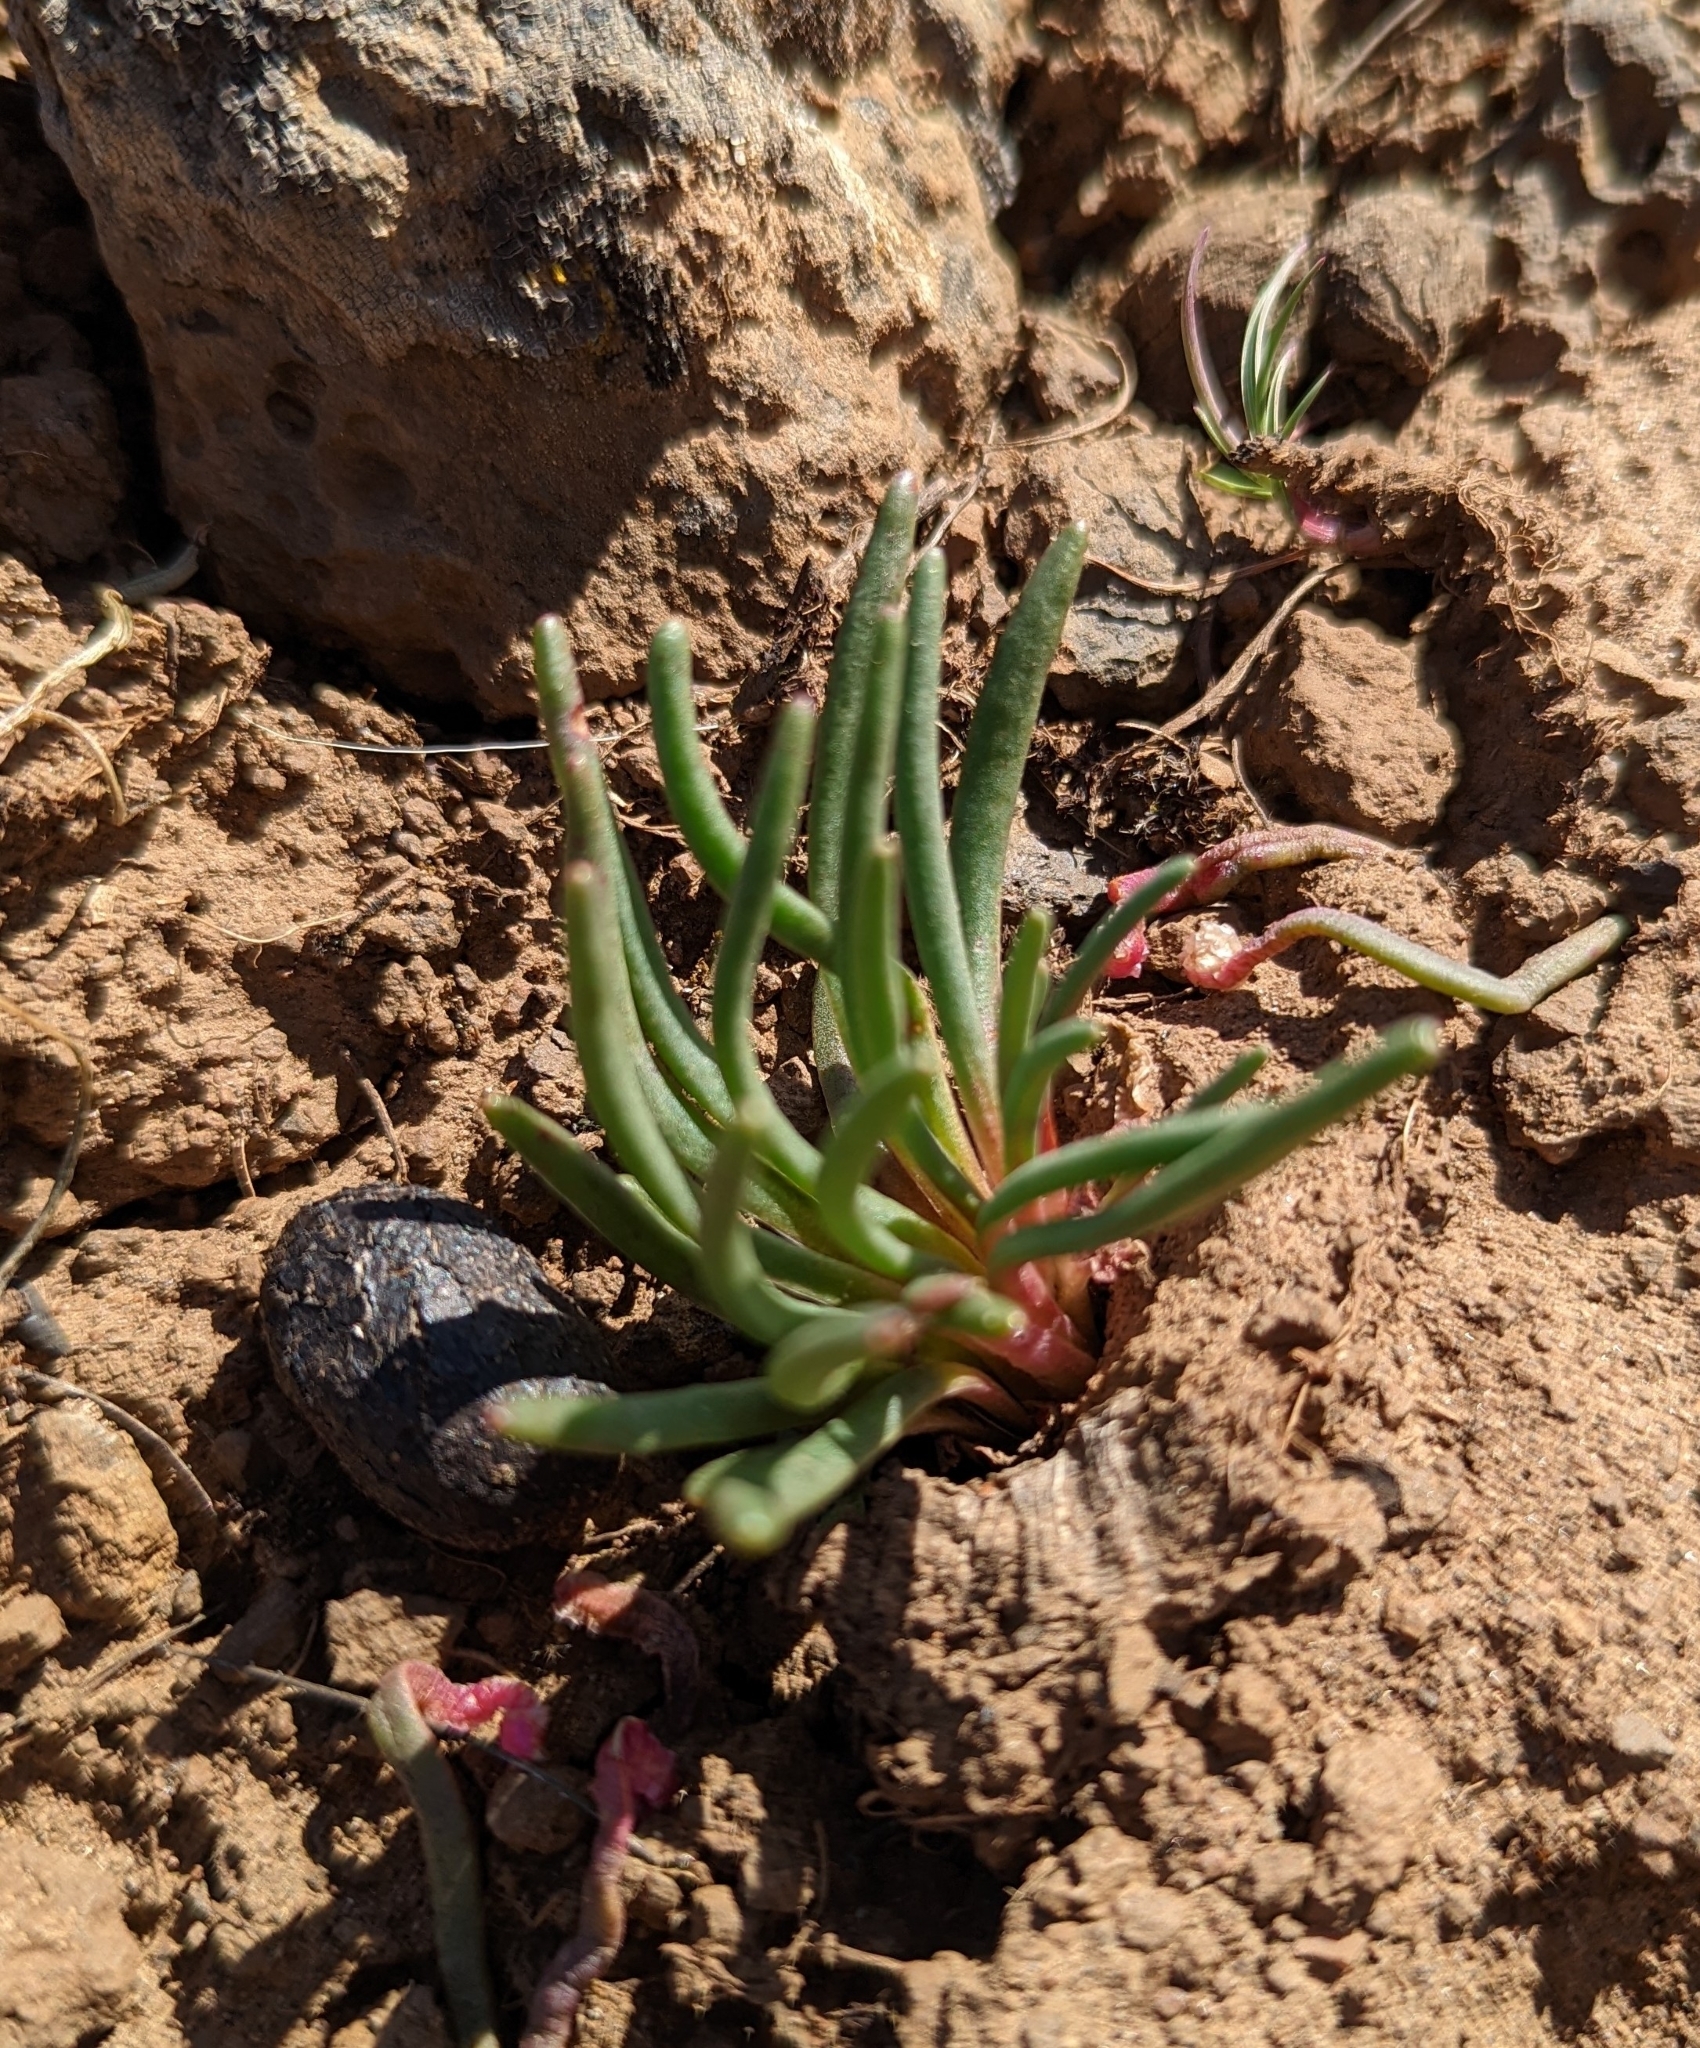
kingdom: Plantae
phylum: Tracheophyta
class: Magnoliopsida
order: Caryophyllales
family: Montiaceae
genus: Lewisia
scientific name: Lewisia rediviva
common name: Bitter-root
